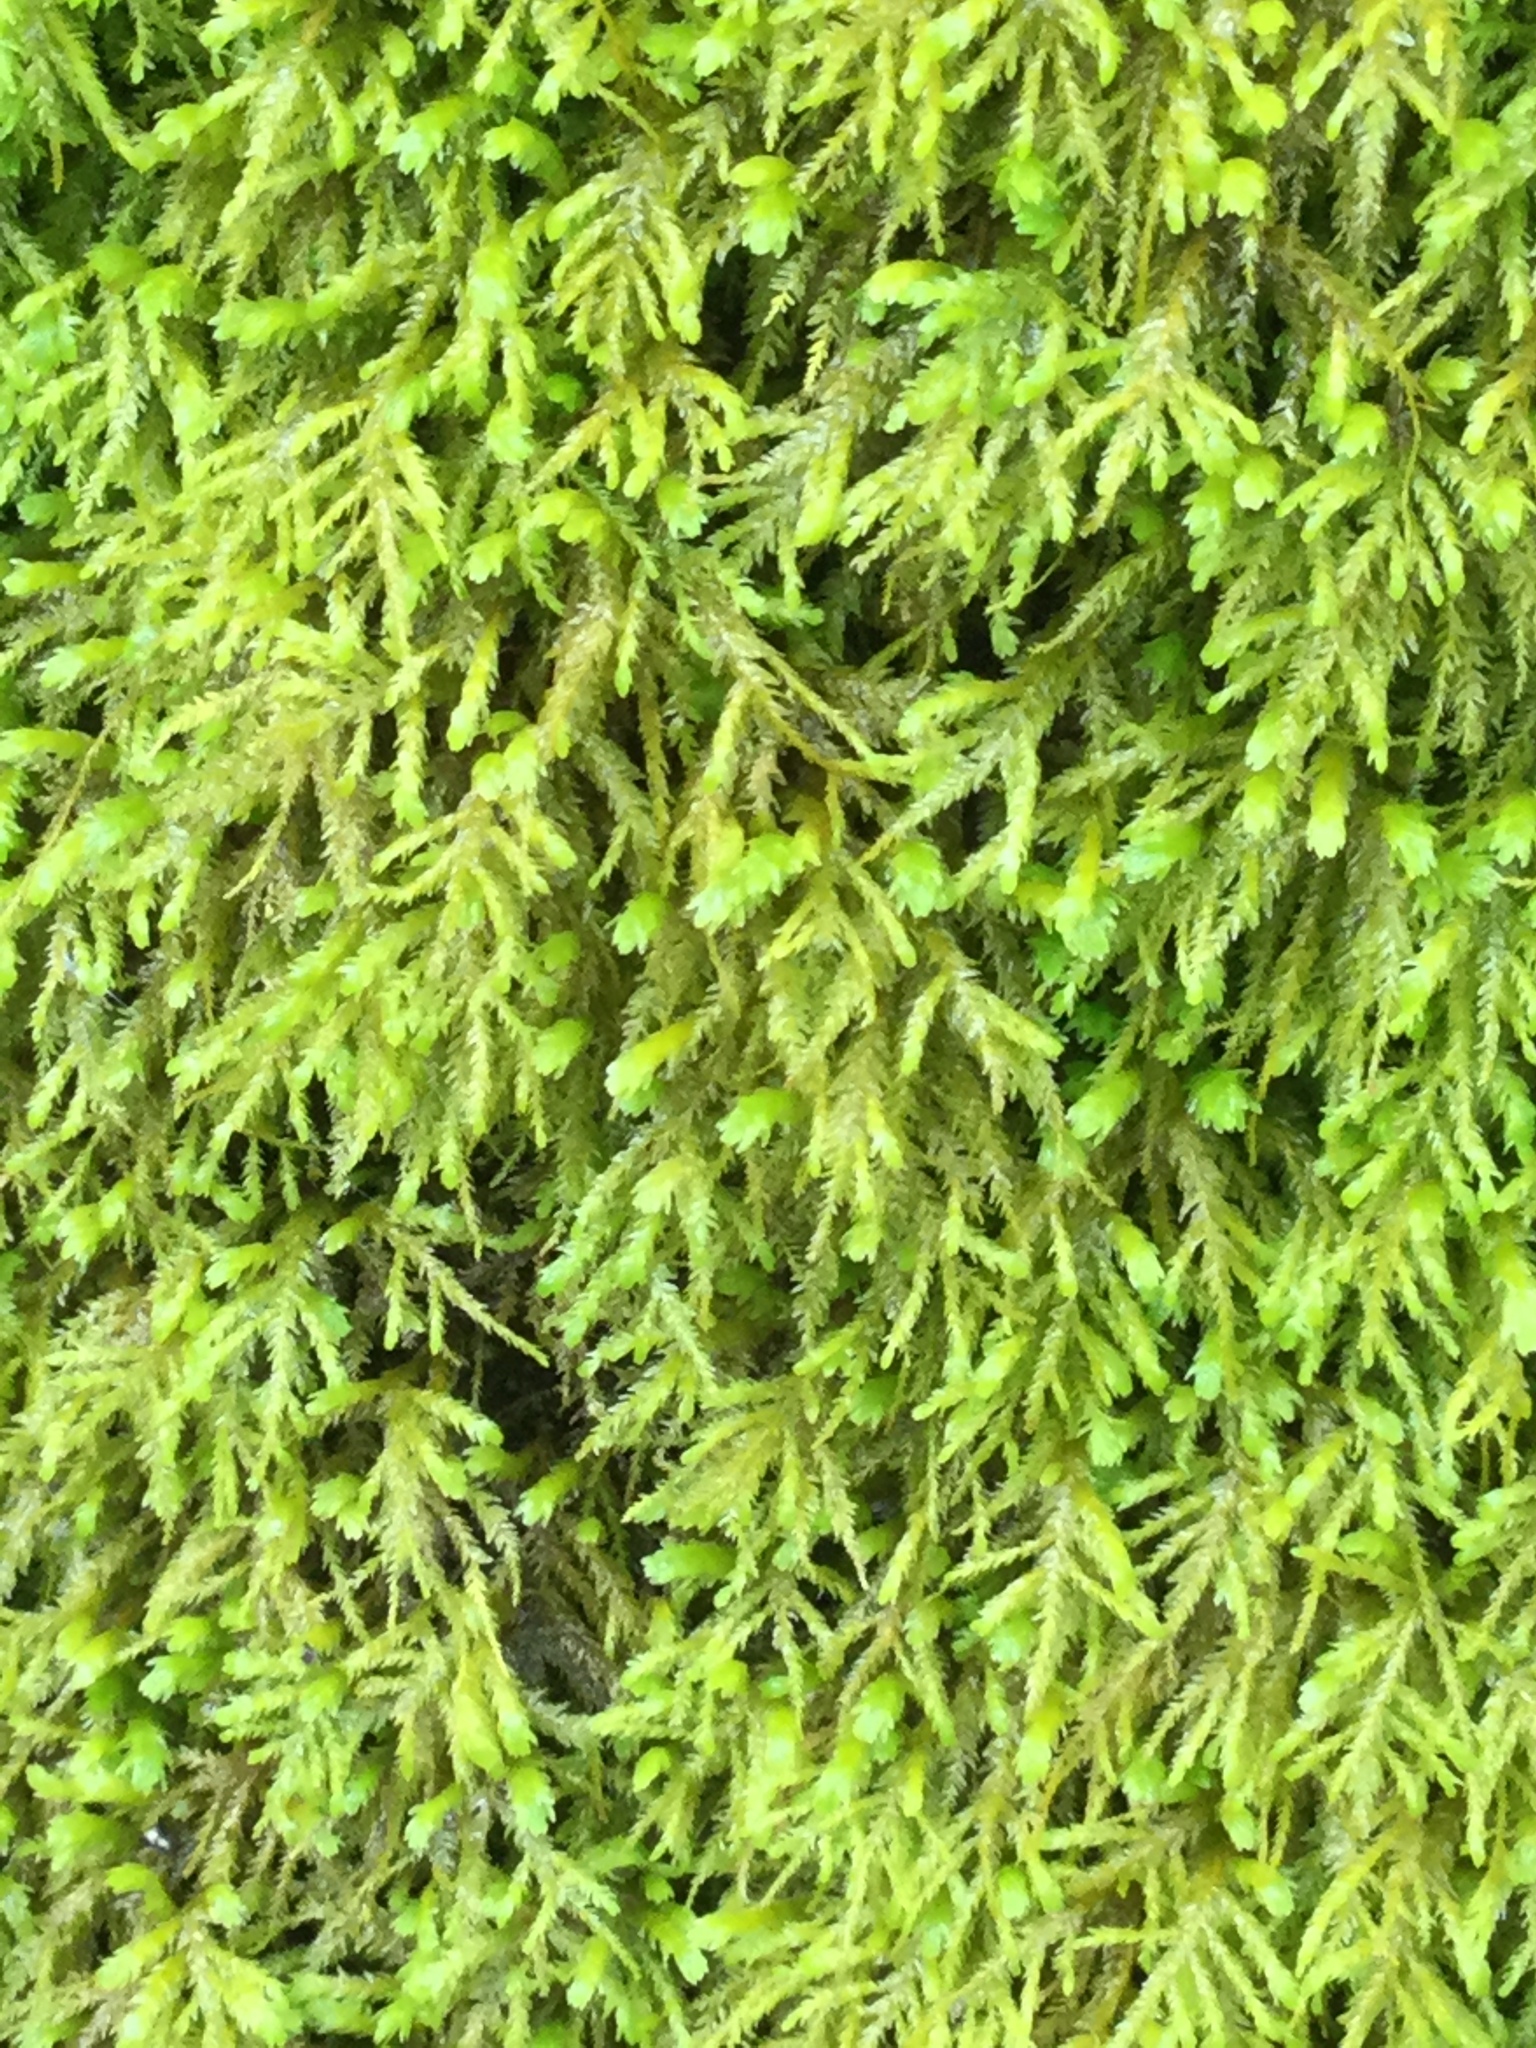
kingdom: Plantae
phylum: Bryophyta
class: Bryopsida
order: Hypnales
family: Neckeraceae
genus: Pseudanomodon
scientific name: Pseudanomodon attenuatus
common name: Tree-skirt moss
